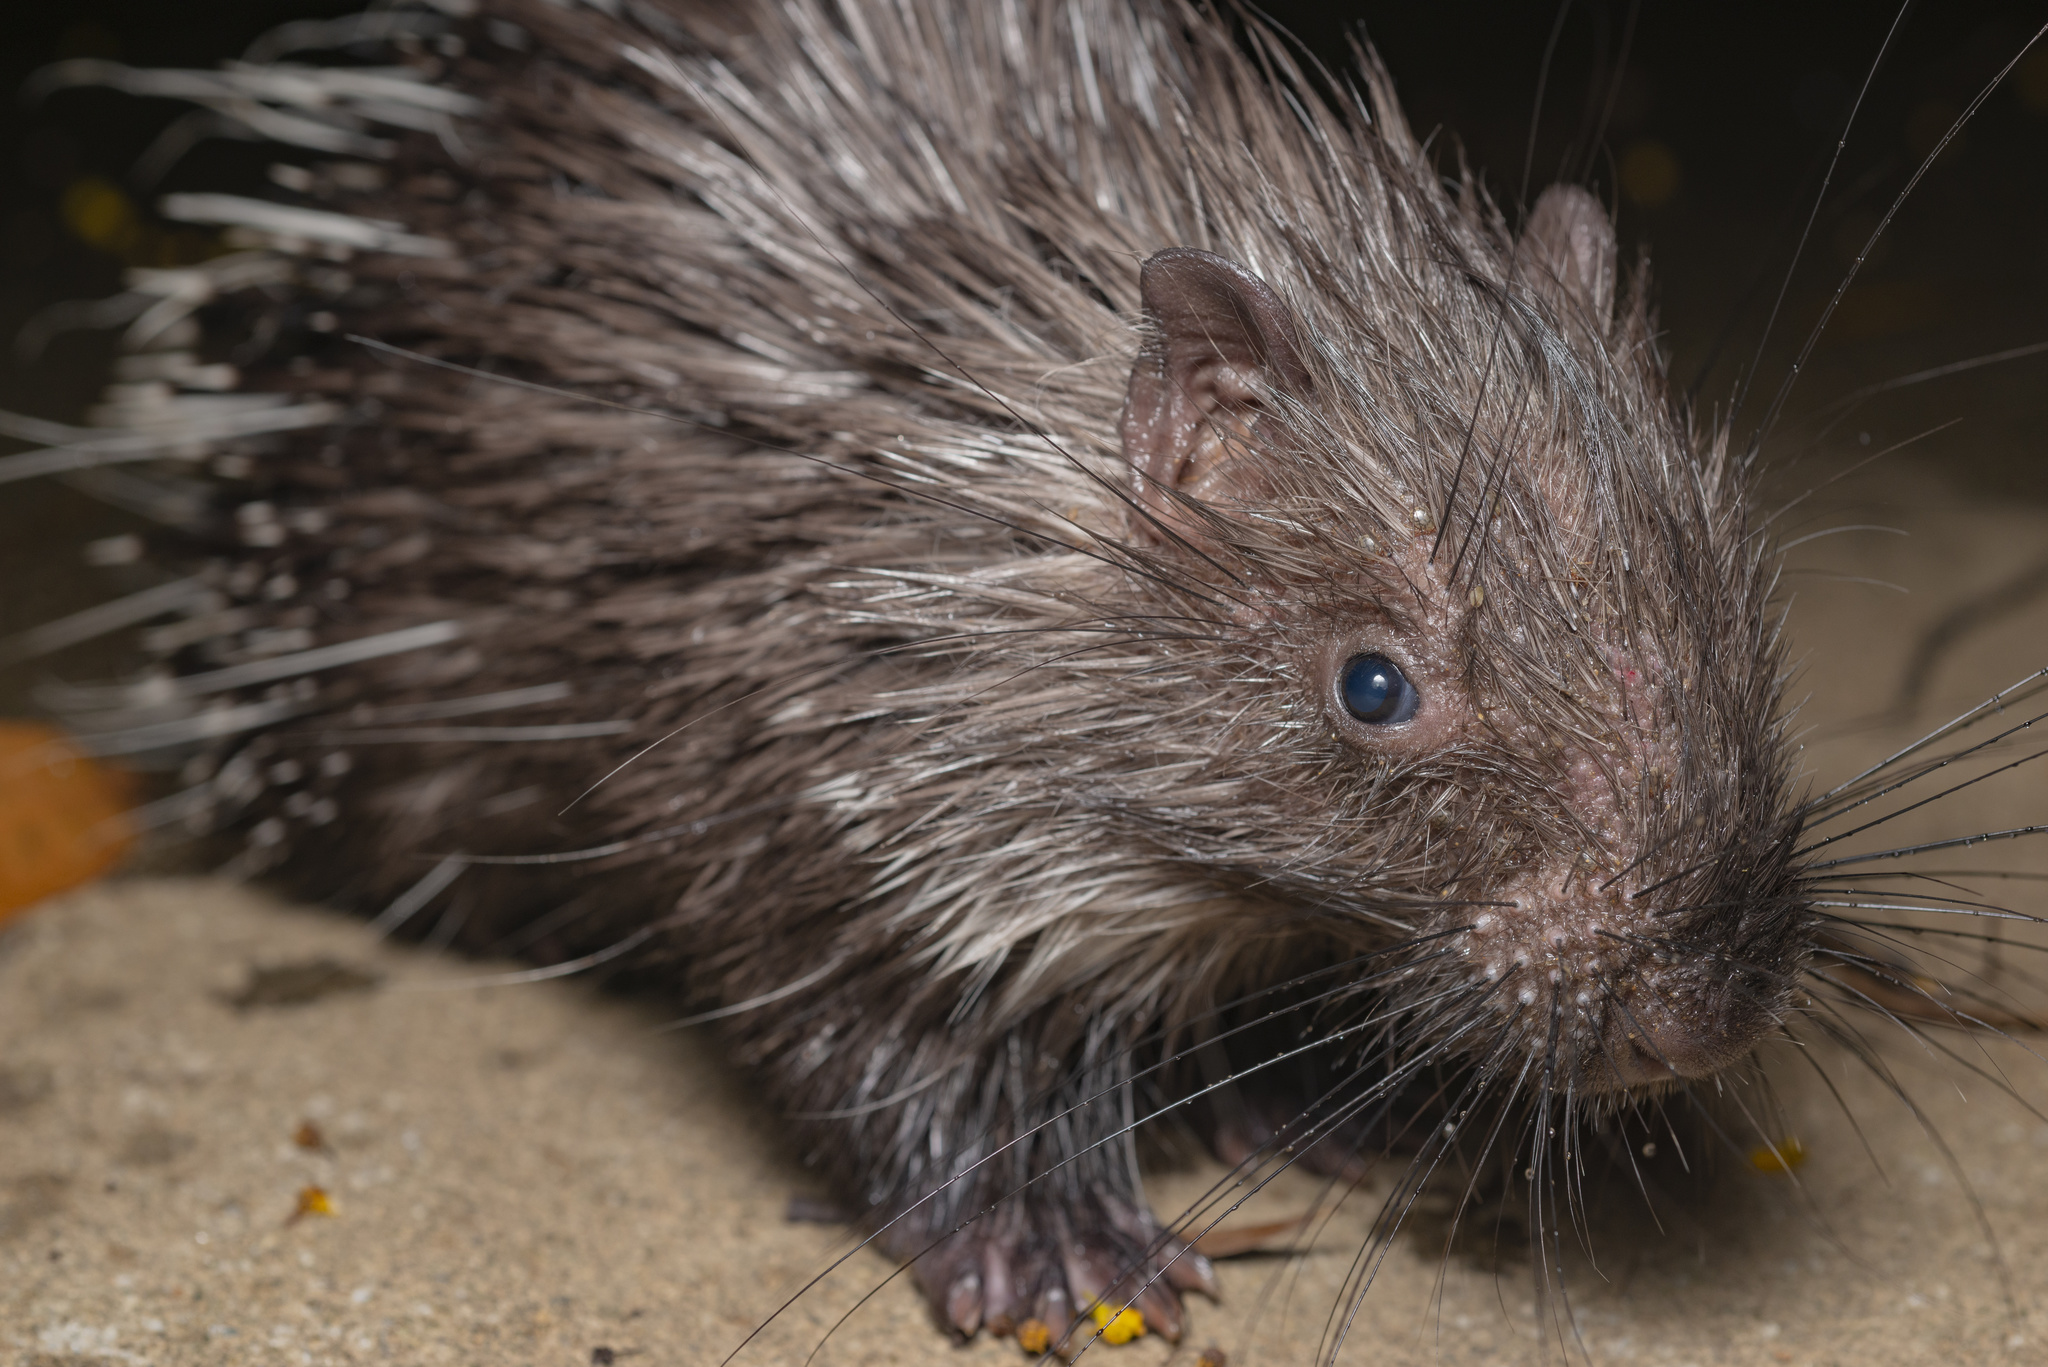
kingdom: Animalia
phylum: Chordata
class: Mammalia
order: Rodentia
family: Hystricidae
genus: Hystrix
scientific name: Hystrix brachyura
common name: Malayan porcupine
